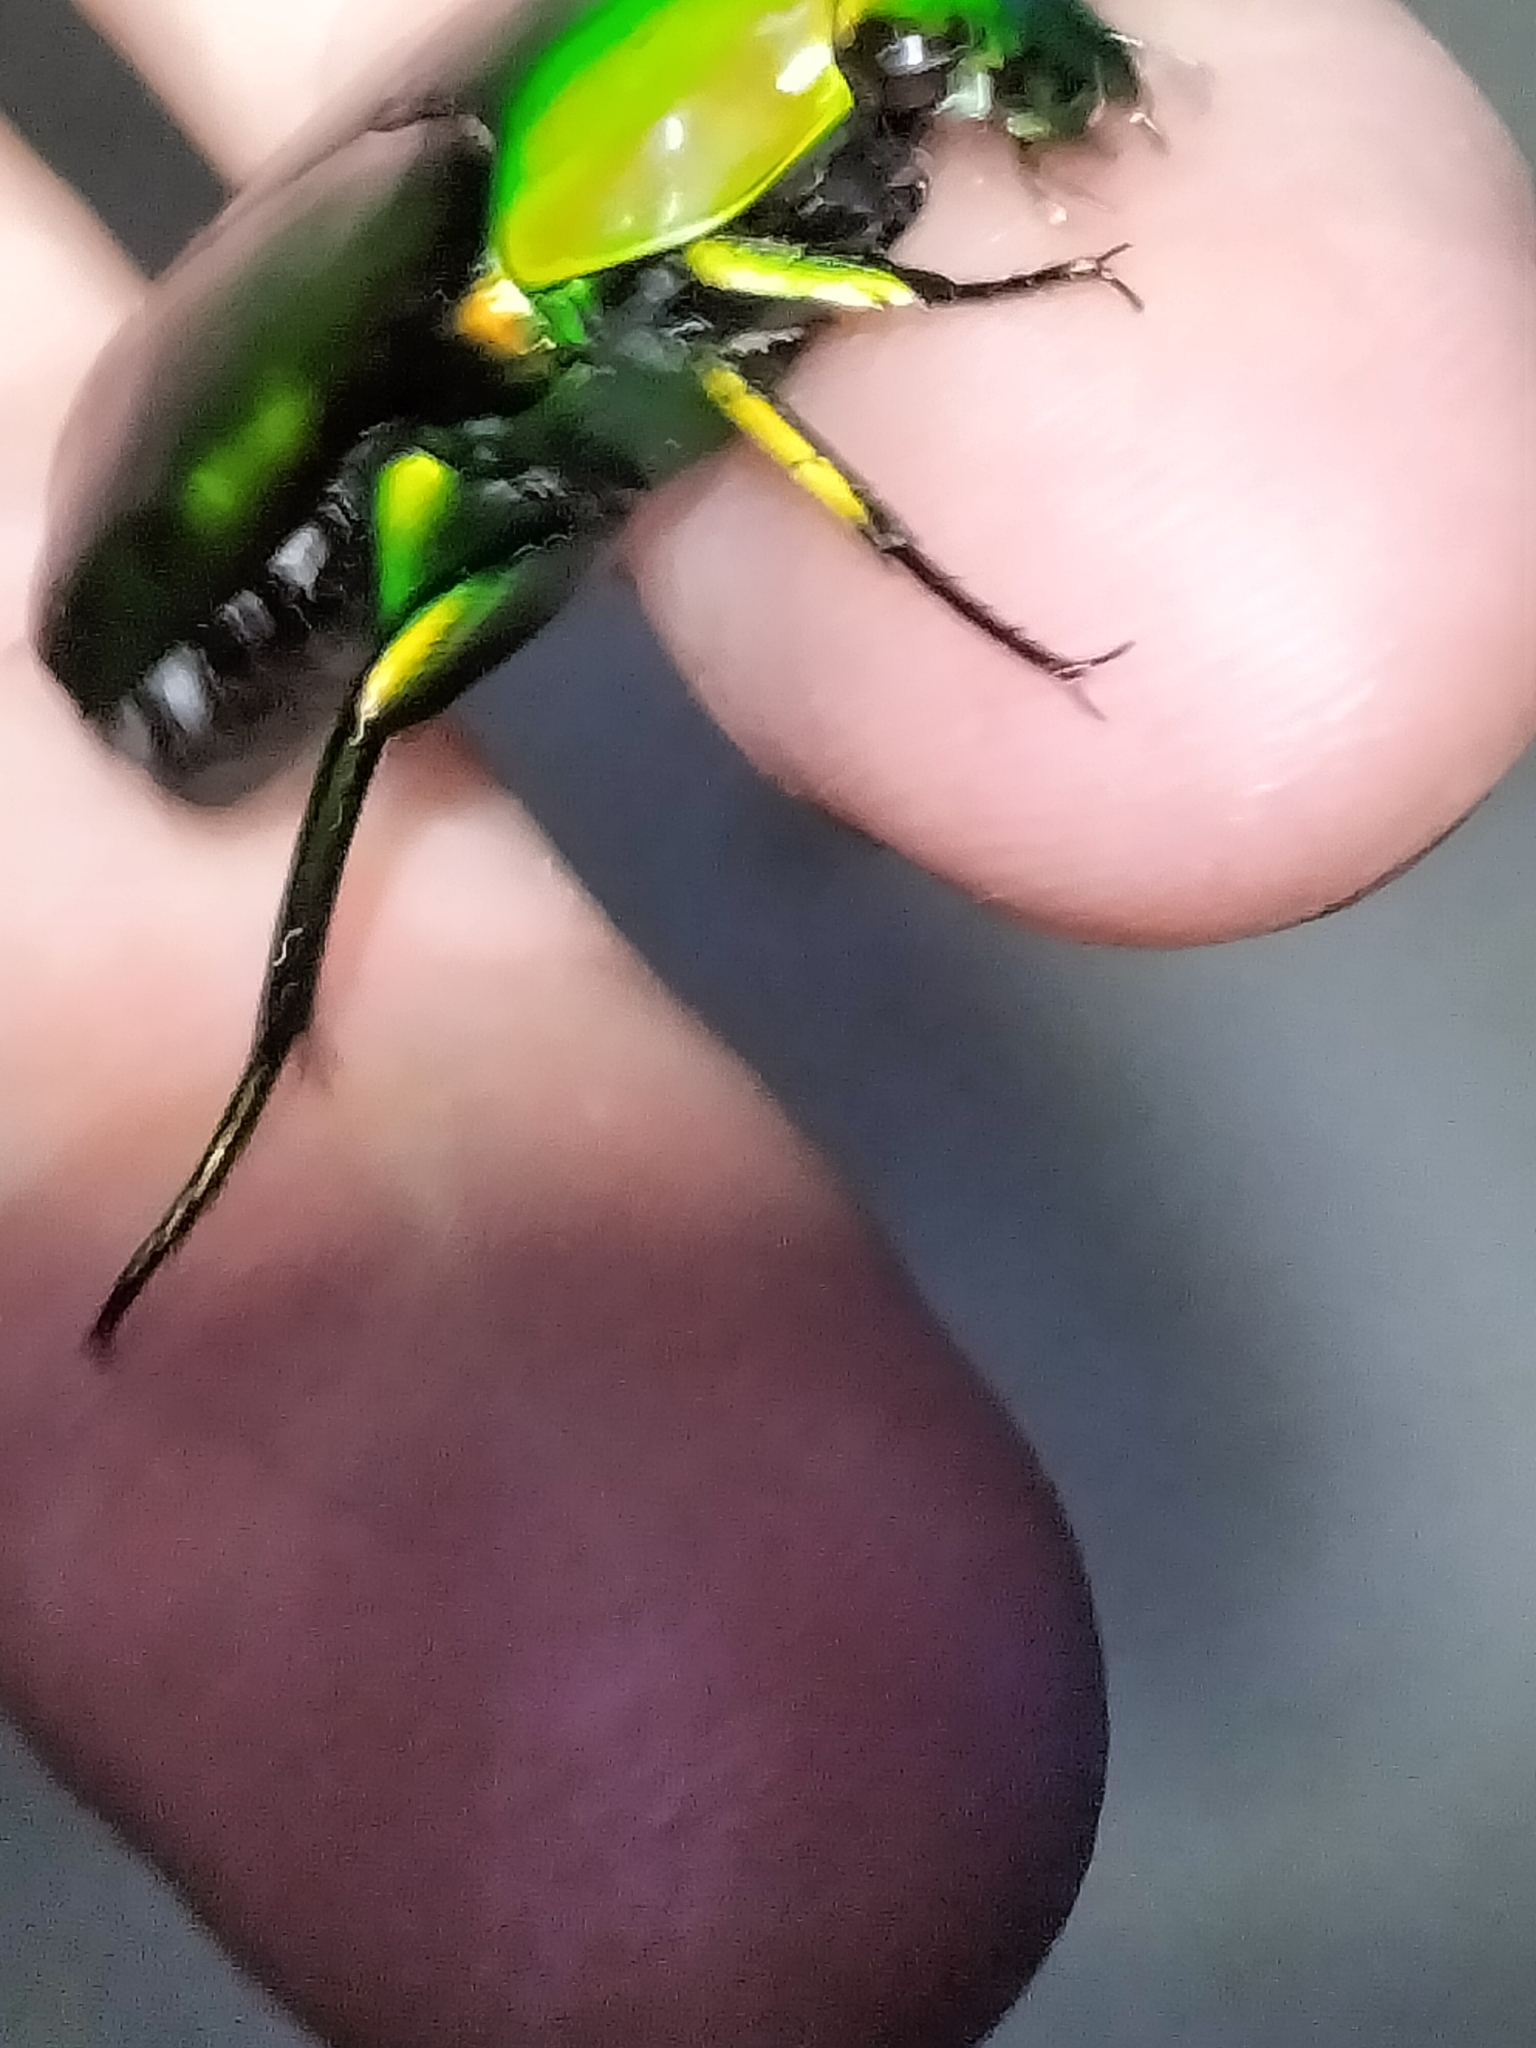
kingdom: Animalia
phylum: Arthropoda
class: Insecta
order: Coleoptera
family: Scarabaeidae
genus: Ischiopsopha
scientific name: Ischiopsopha wallacei
